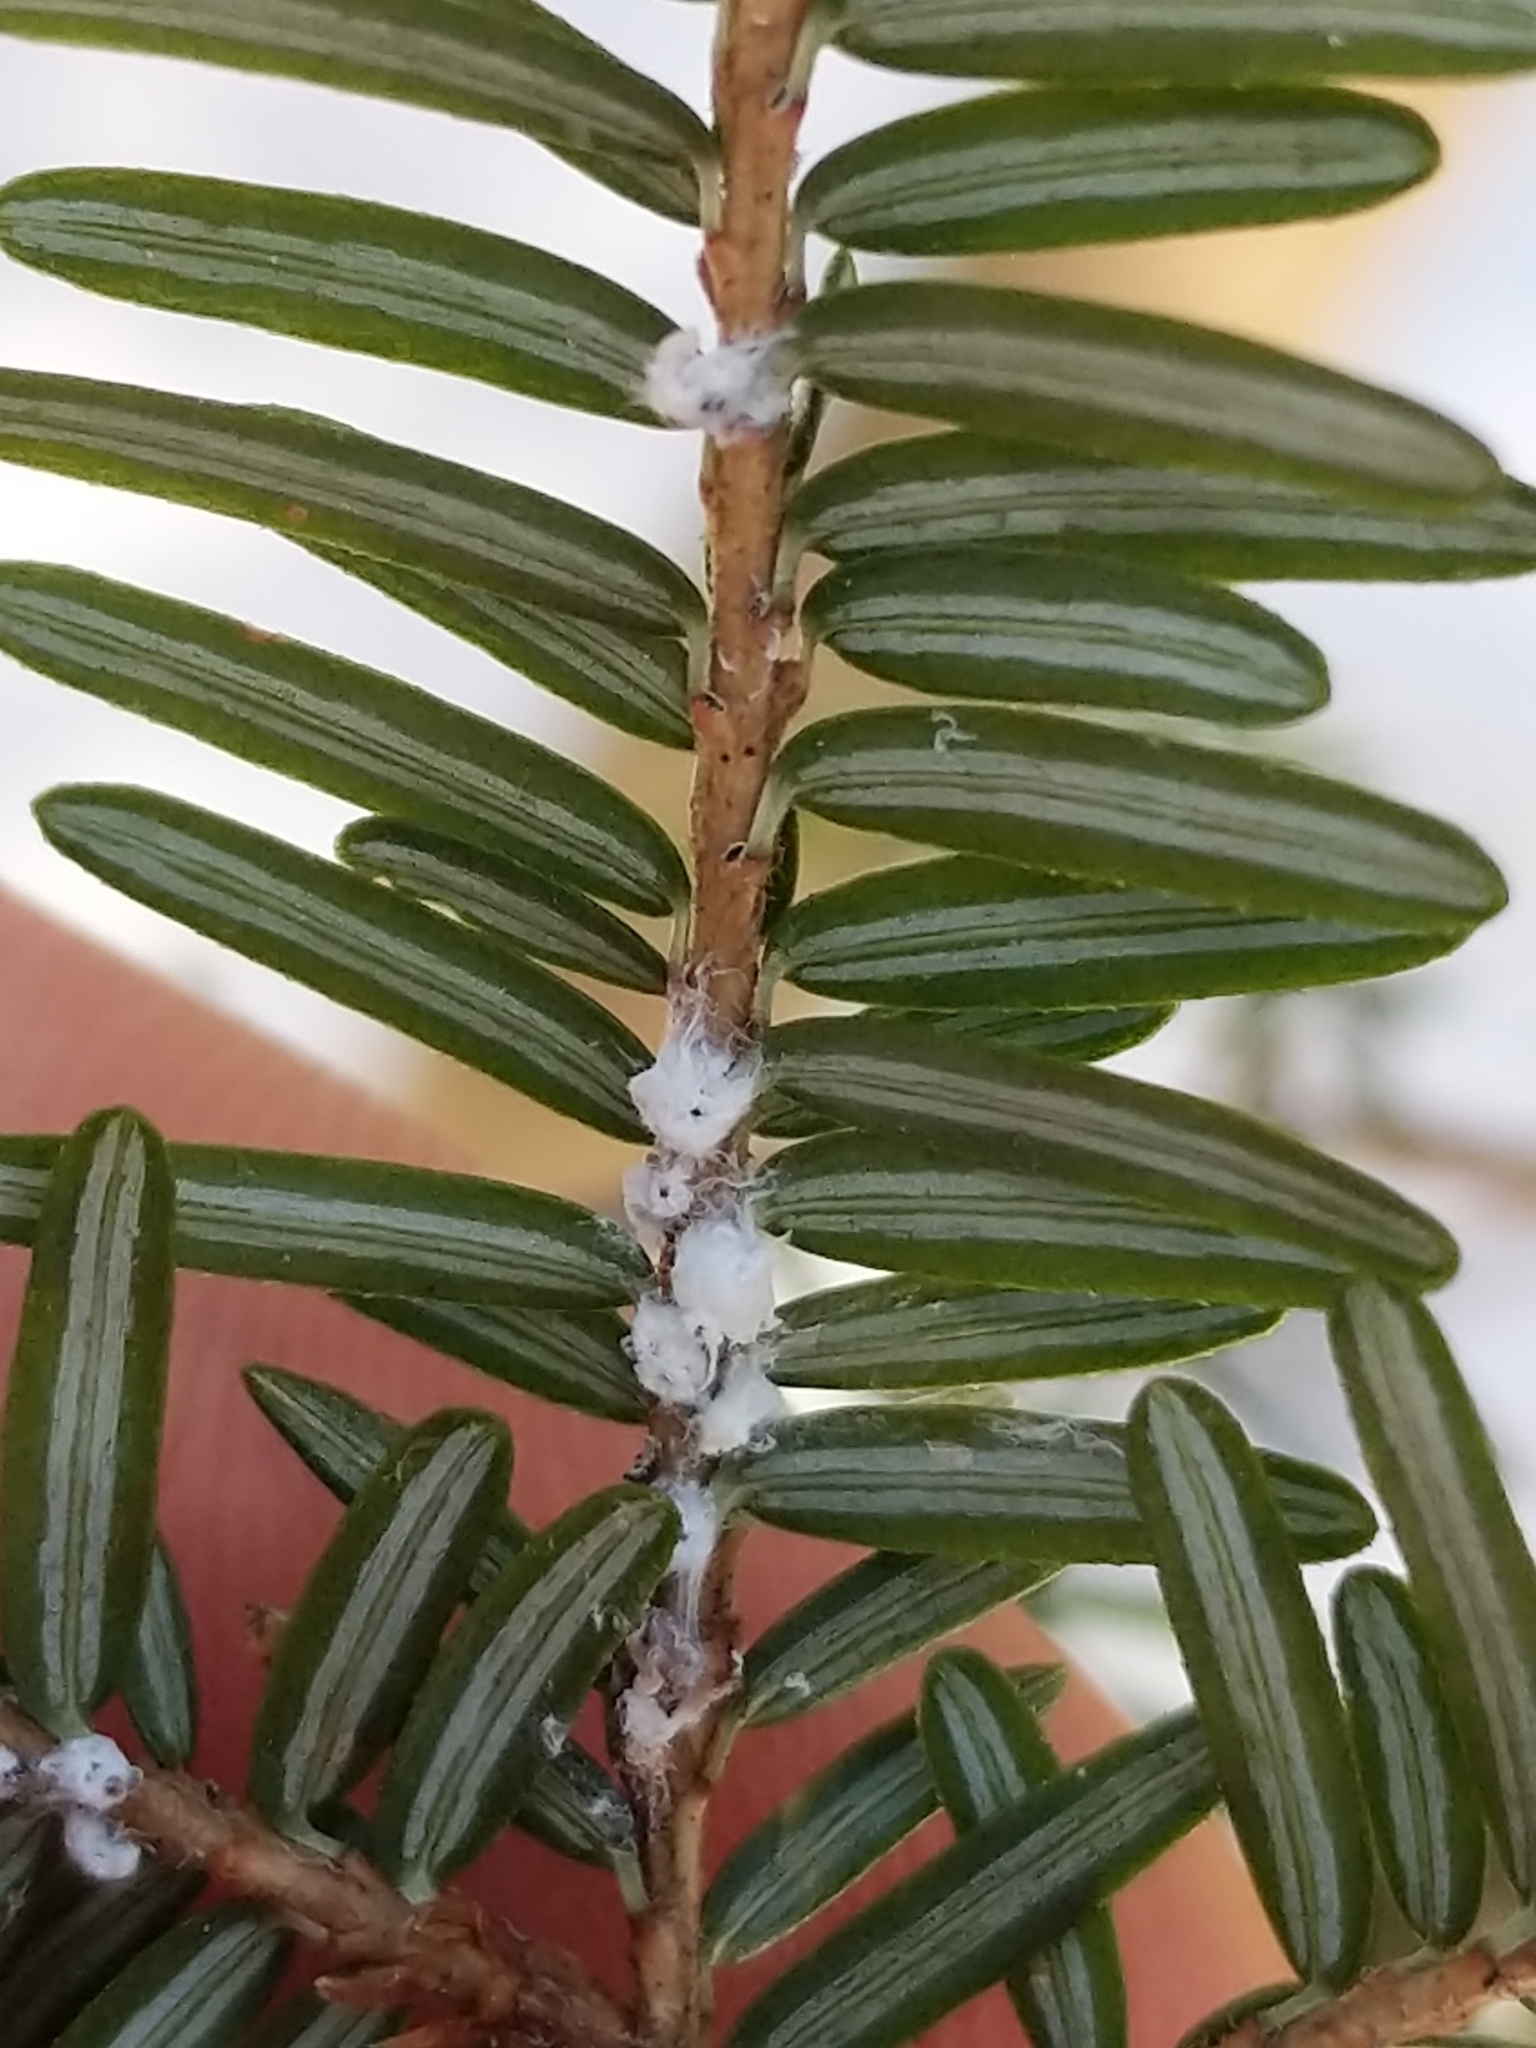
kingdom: Animalia
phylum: Arthropoda
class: Insecta
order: Hemiptera
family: Adelgidae
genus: Adelges
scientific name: Adelges tsugae
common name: Hemlock woolly adelgid
